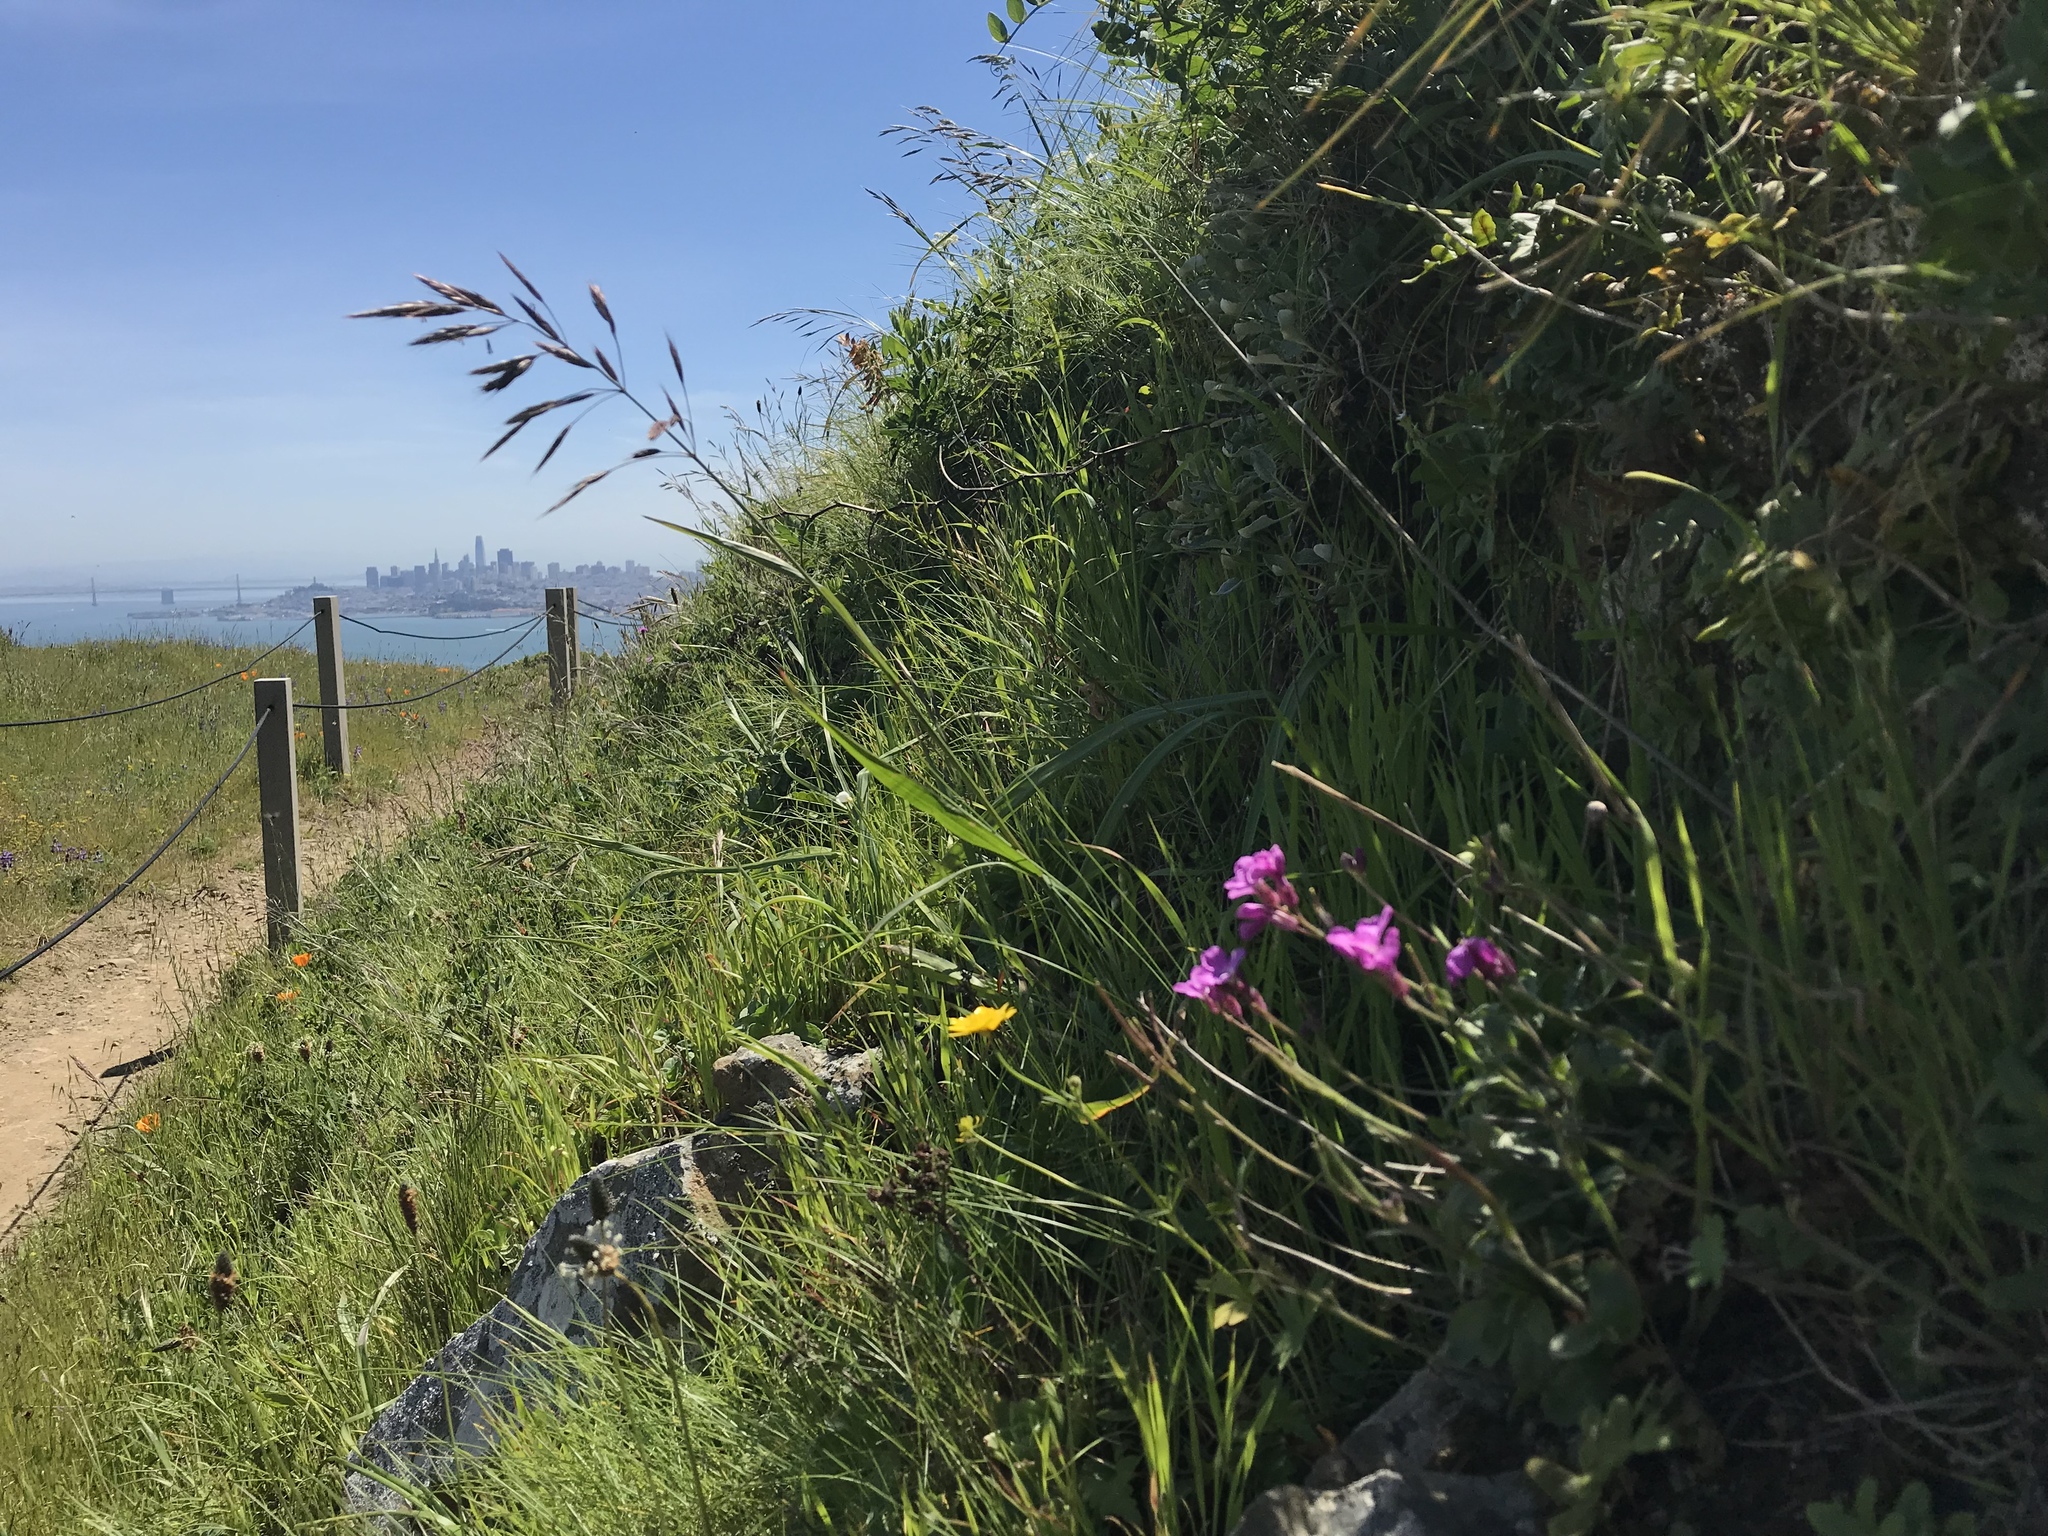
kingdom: Plantae
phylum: Tracheophyta
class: Magnoliopsida
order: Brassicales
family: Brassicaceae
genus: Arabis
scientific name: Arabis blepharophylla
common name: Rose rockcress
